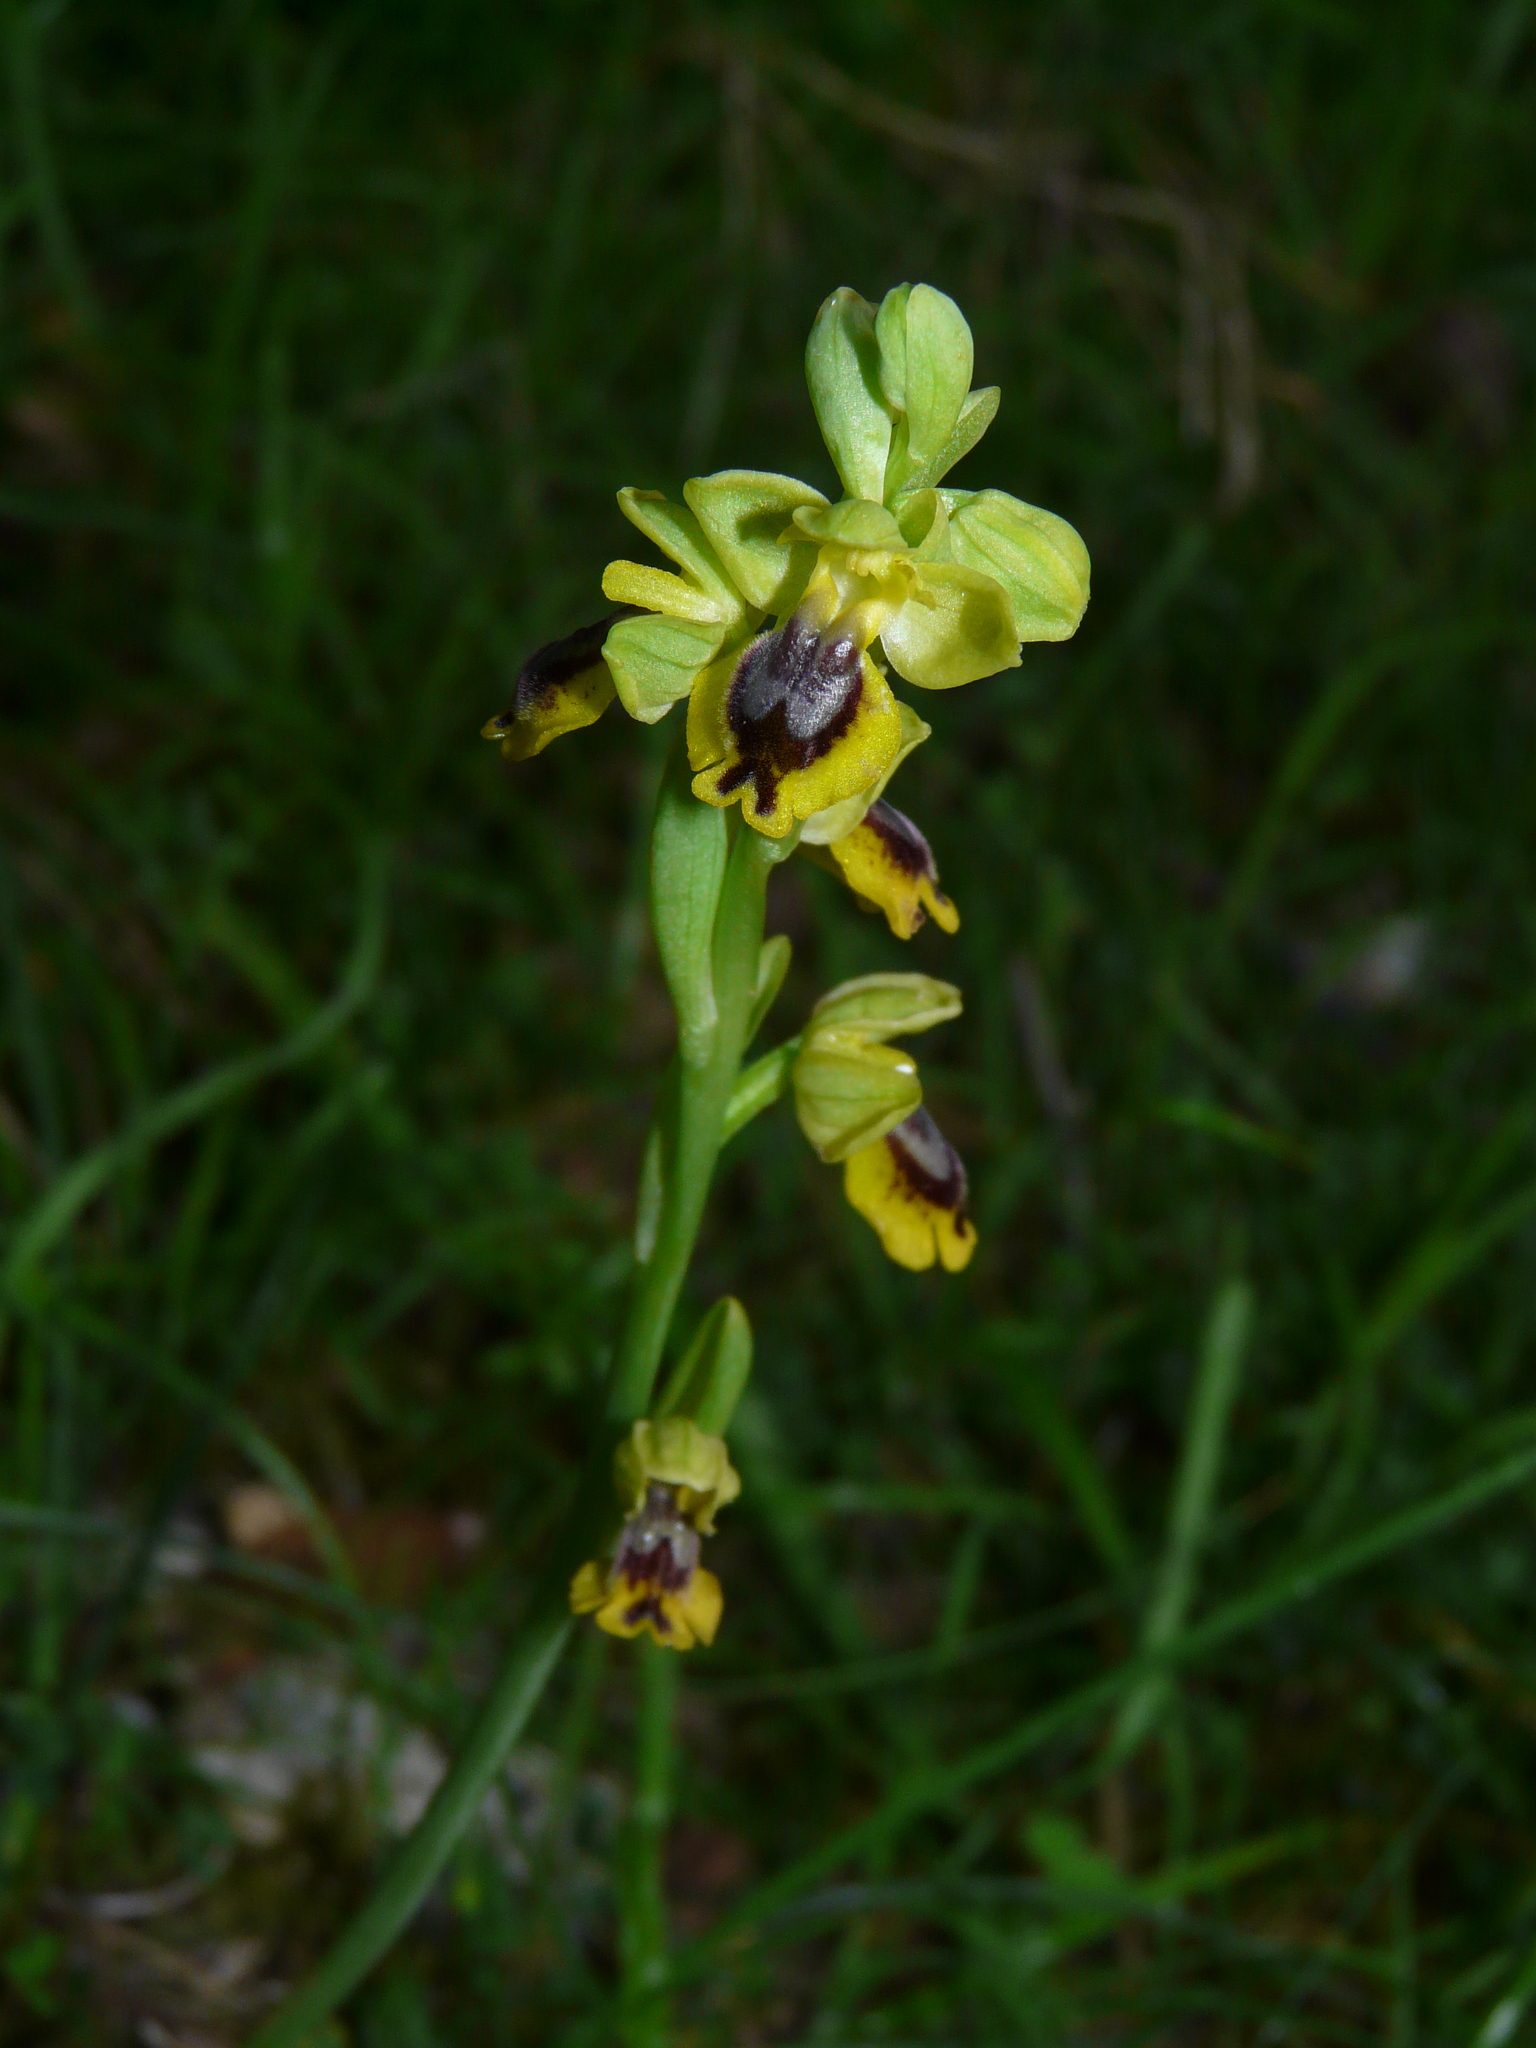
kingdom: Plantae
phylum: Tracheophyta
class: Liliopsida
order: Asparagales
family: Orchidaceae
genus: Ophrys
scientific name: Ophrys lutea
